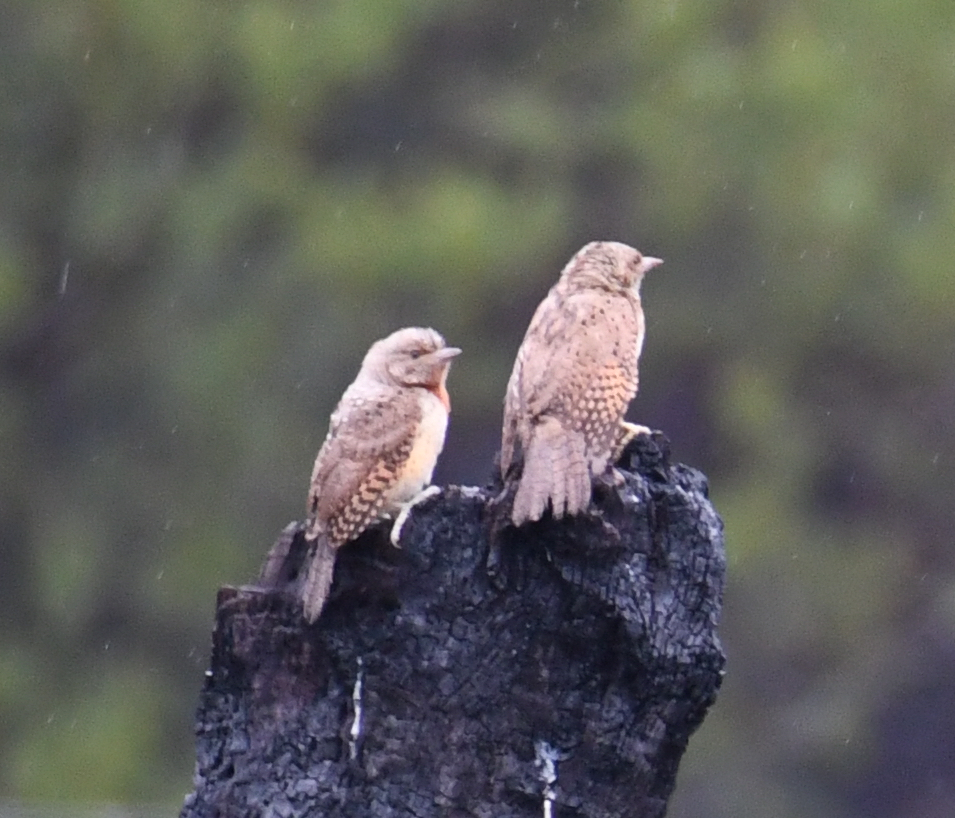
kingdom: Animalia
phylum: Chordata
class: Aves
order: Piciformes
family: Picidae
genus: Jynx
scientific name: Jynx ruficollis
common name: Red-throated wryneck
